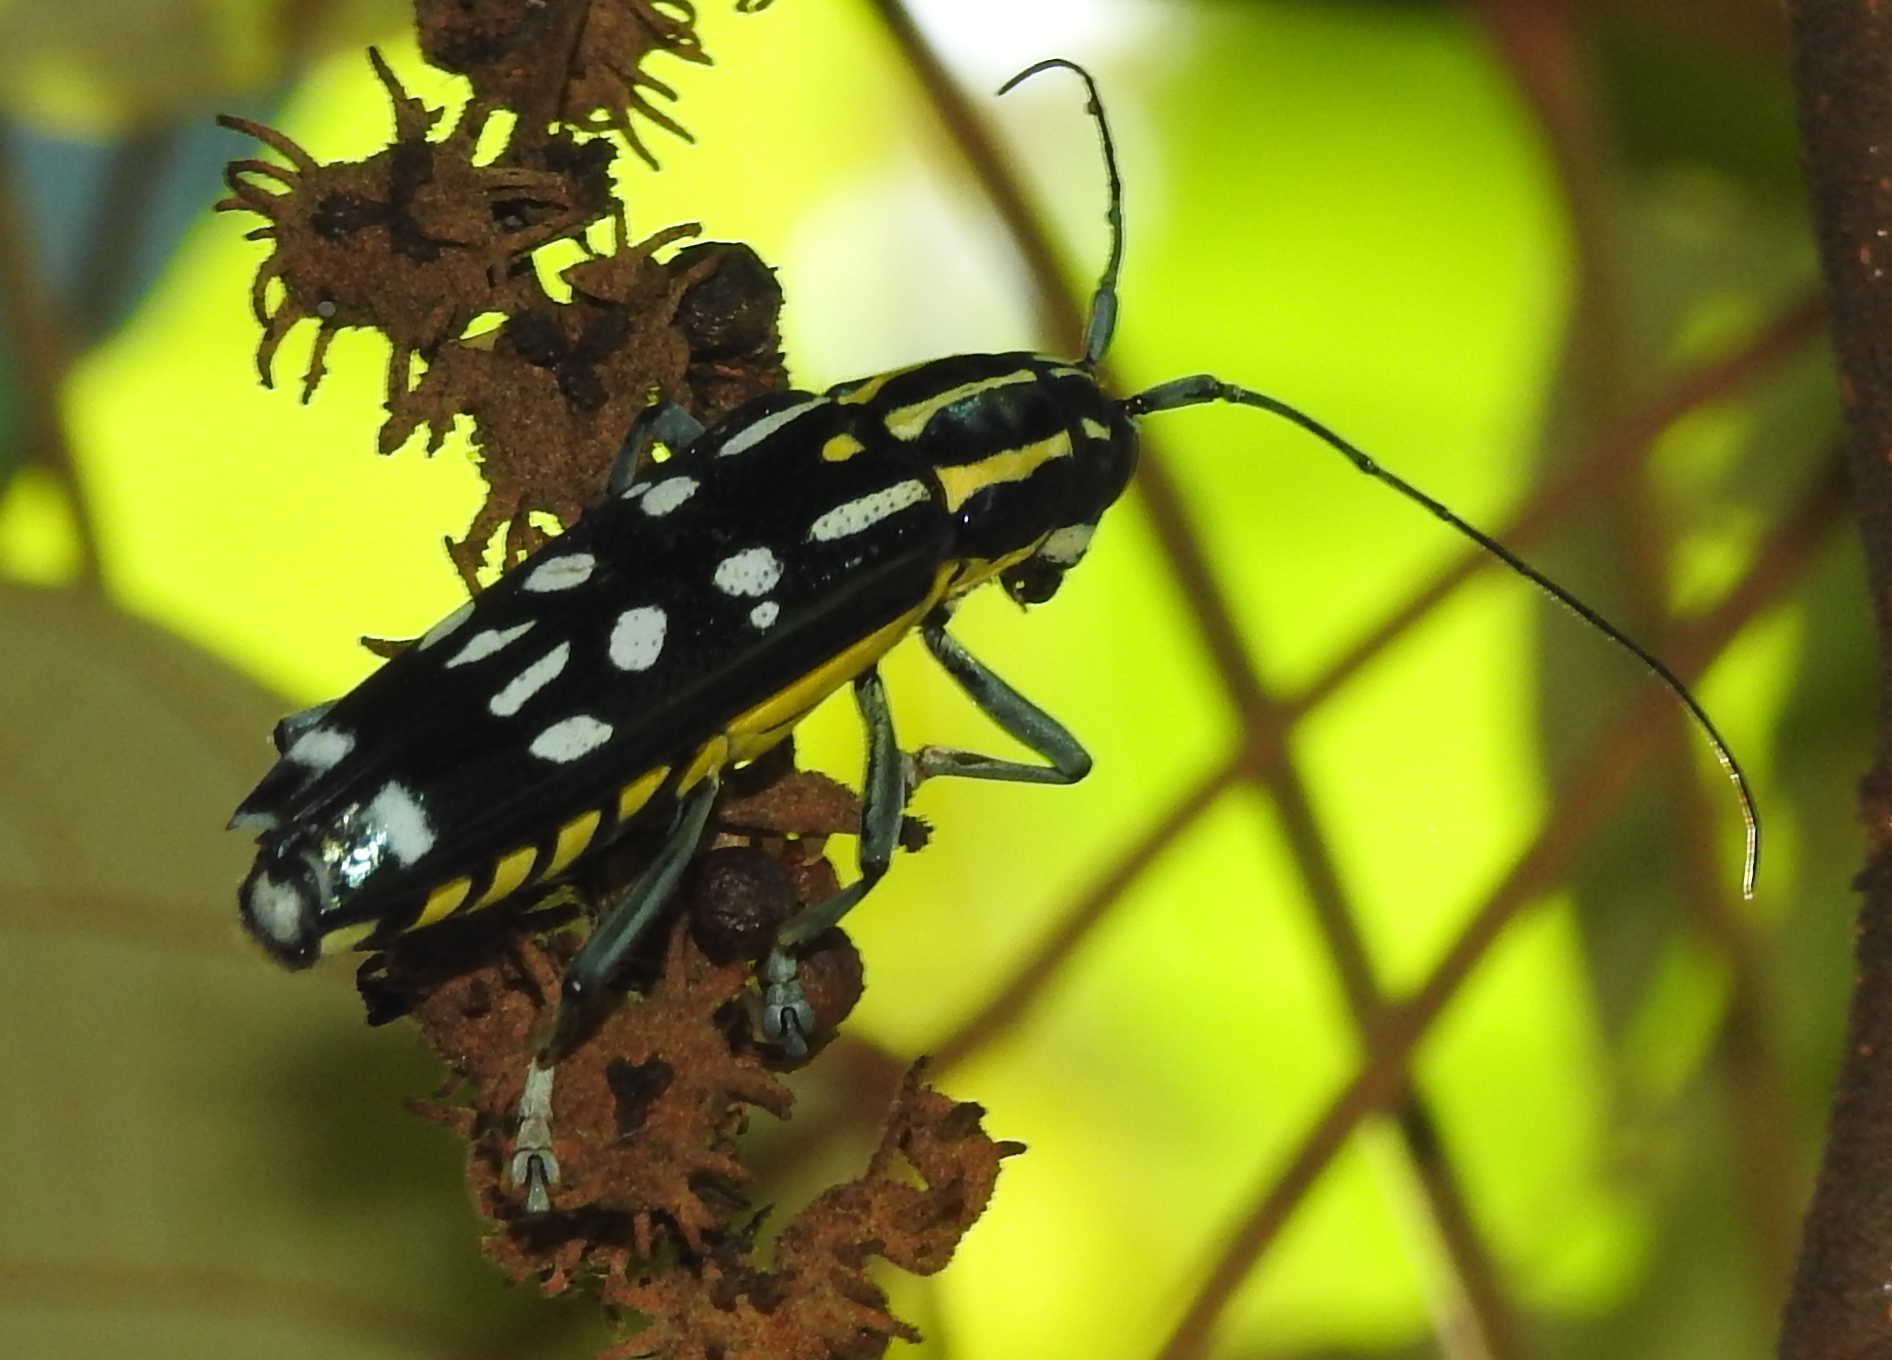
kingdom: Animalia
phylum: Arthropoda
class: Insecta
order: Coleoptera
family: Cerambycidae
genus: Glenea
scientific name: Glenea elegans
